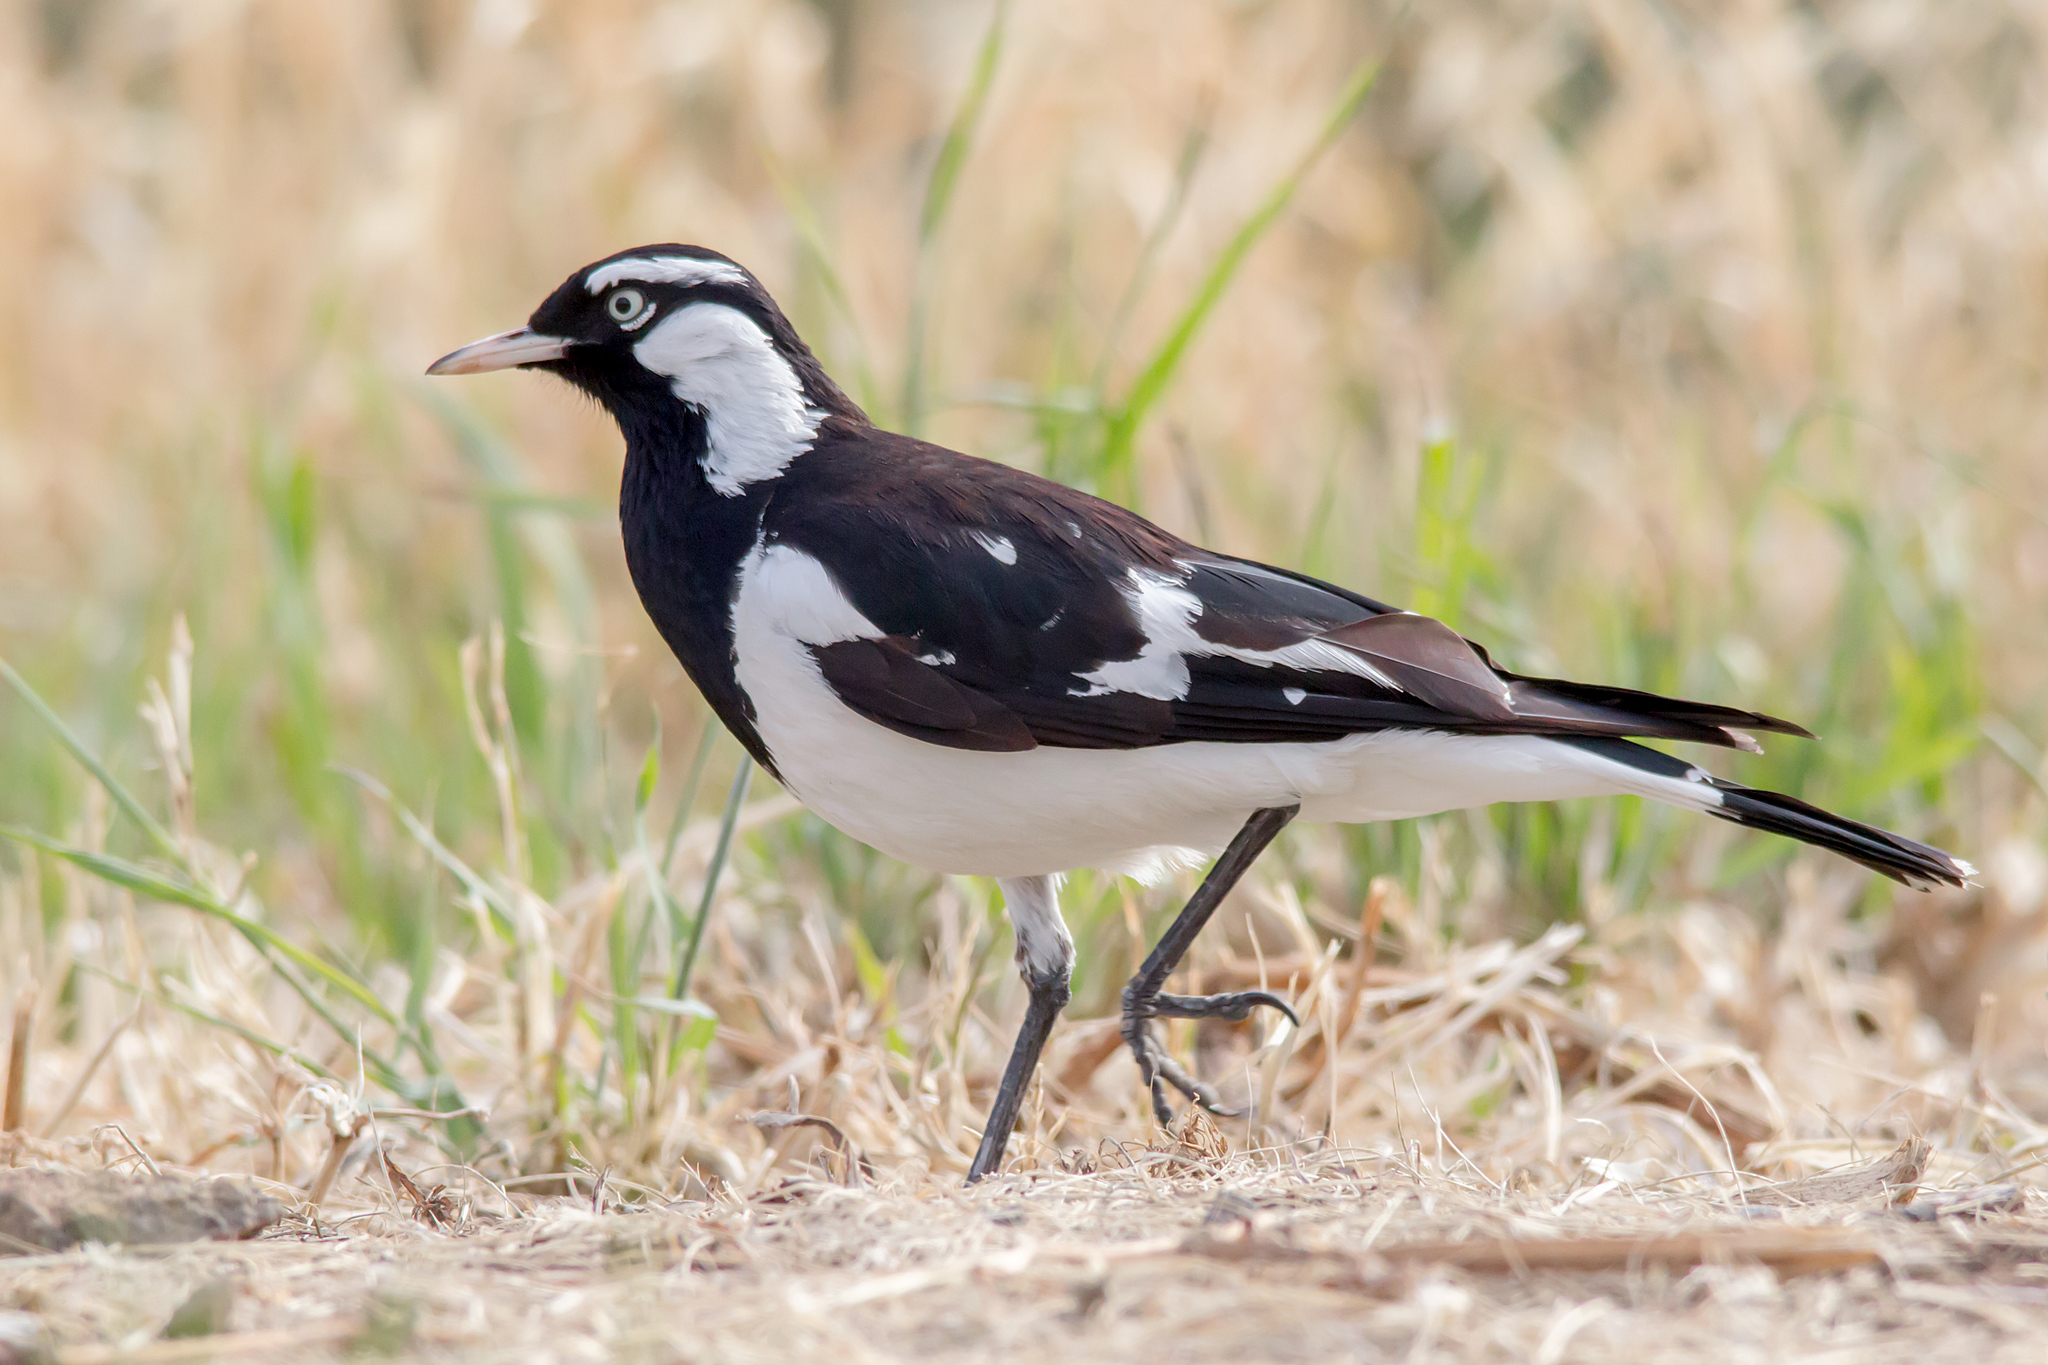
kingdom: Animalia
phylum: Chordata
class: Aves
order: Passeriformes
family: Monarchidae
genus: Grallina
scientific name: Grallina cyanoleuca
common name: Magpie-lark
